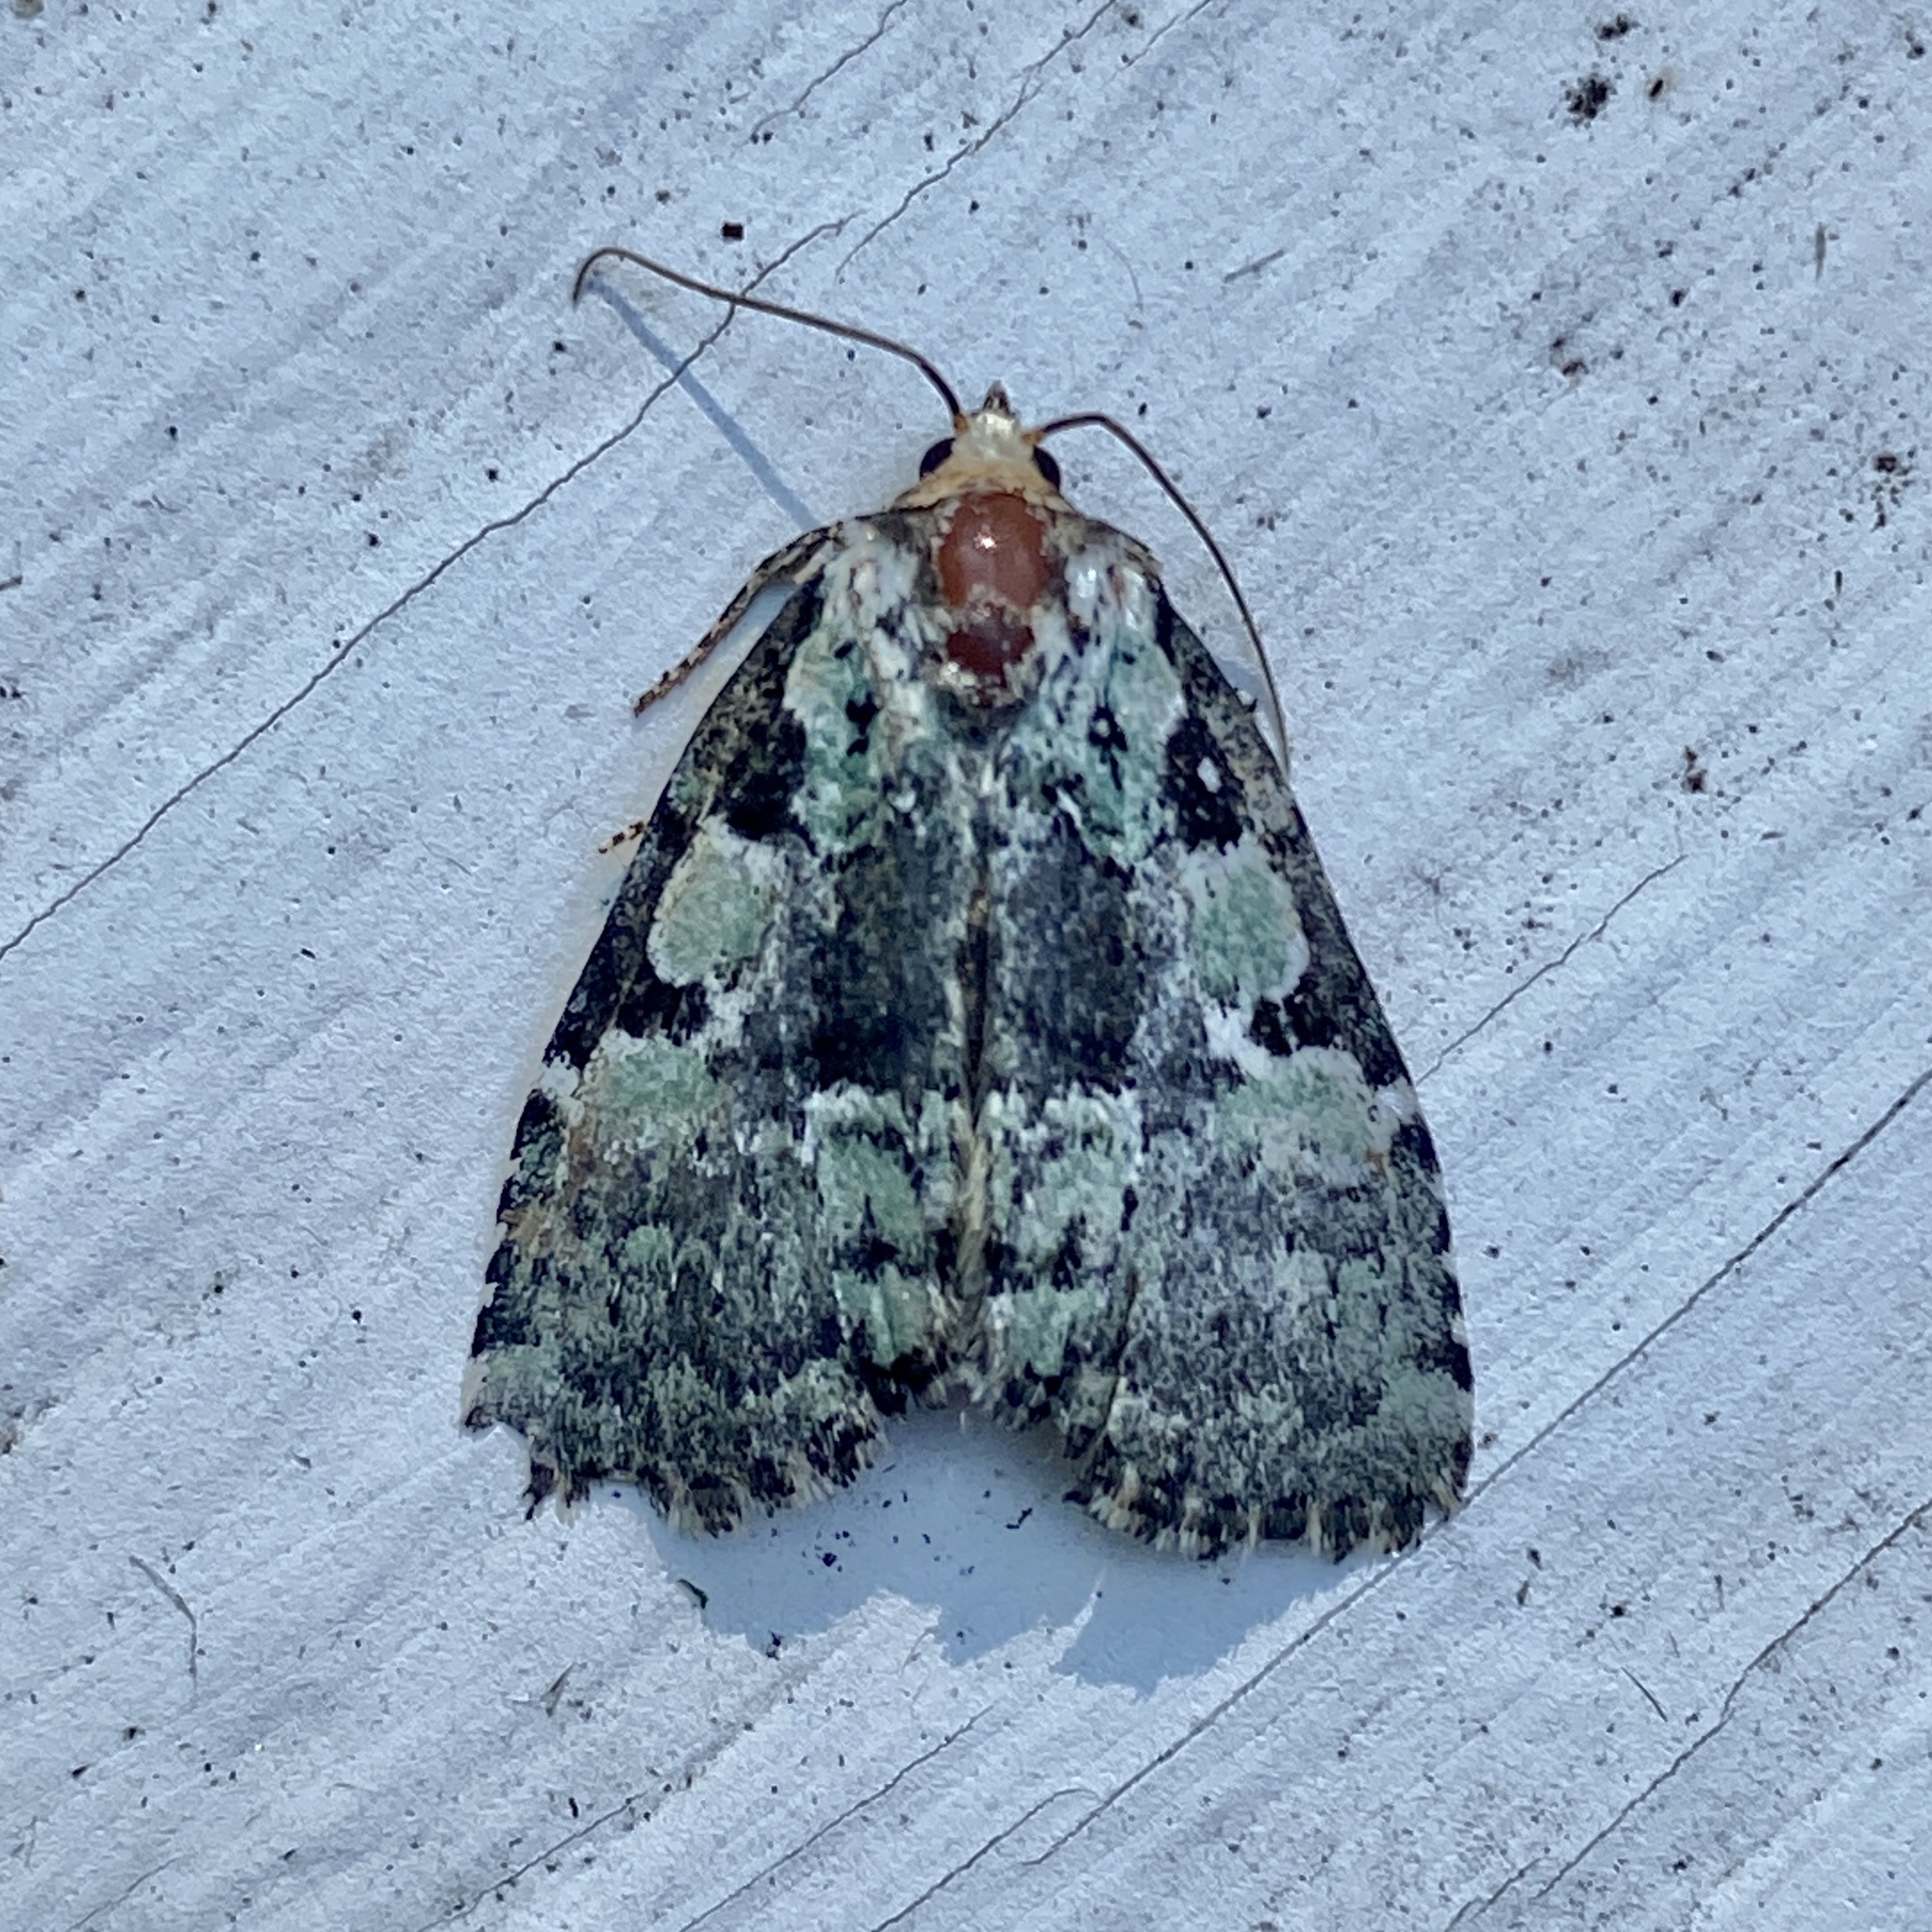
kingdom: Animalia
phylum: Arthropoda
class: Insecta
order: Lepidoptera
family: Noctuidae
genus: Leuconycta
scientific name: Leuconycta lepidula
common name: Marbled-green leuconycta moth
